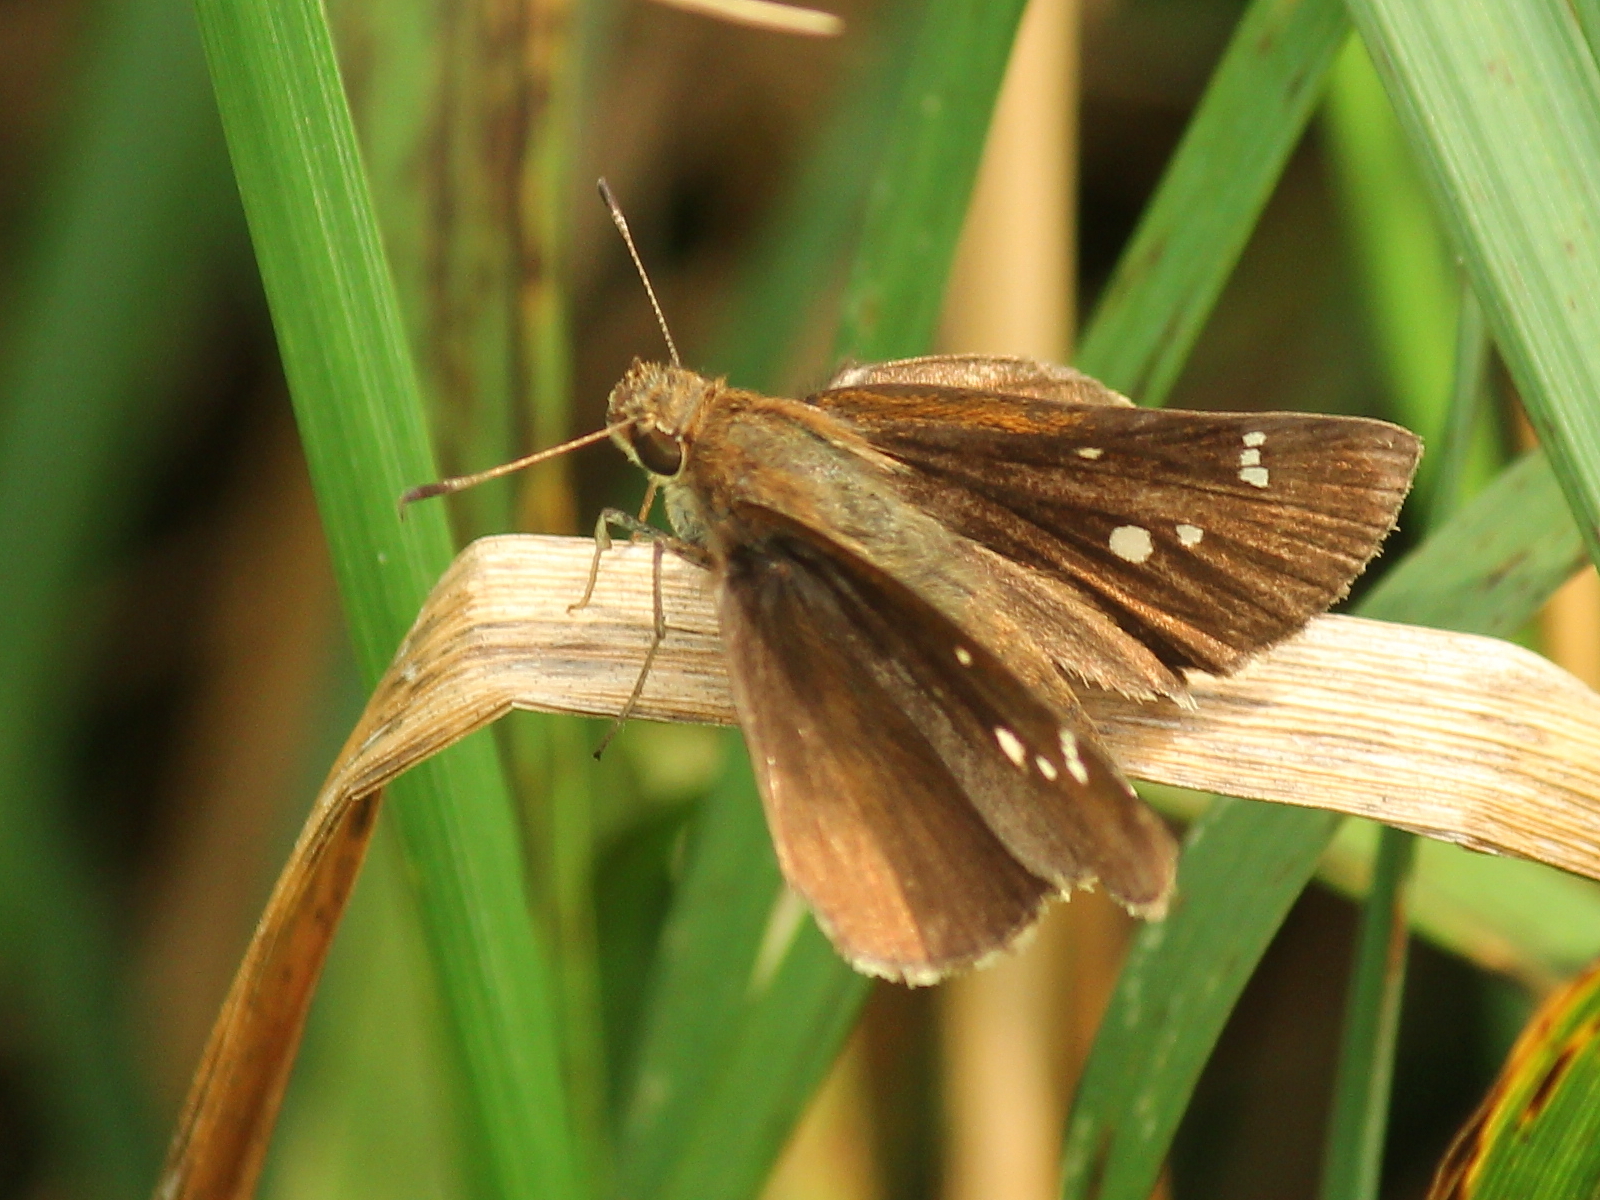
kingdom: Animalia
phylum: Arthropoda
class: Insecta
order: Lepidoptera
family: Hesperiidae
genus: Lerodea
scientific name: Lerodea eufala
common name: Eufala skipper
